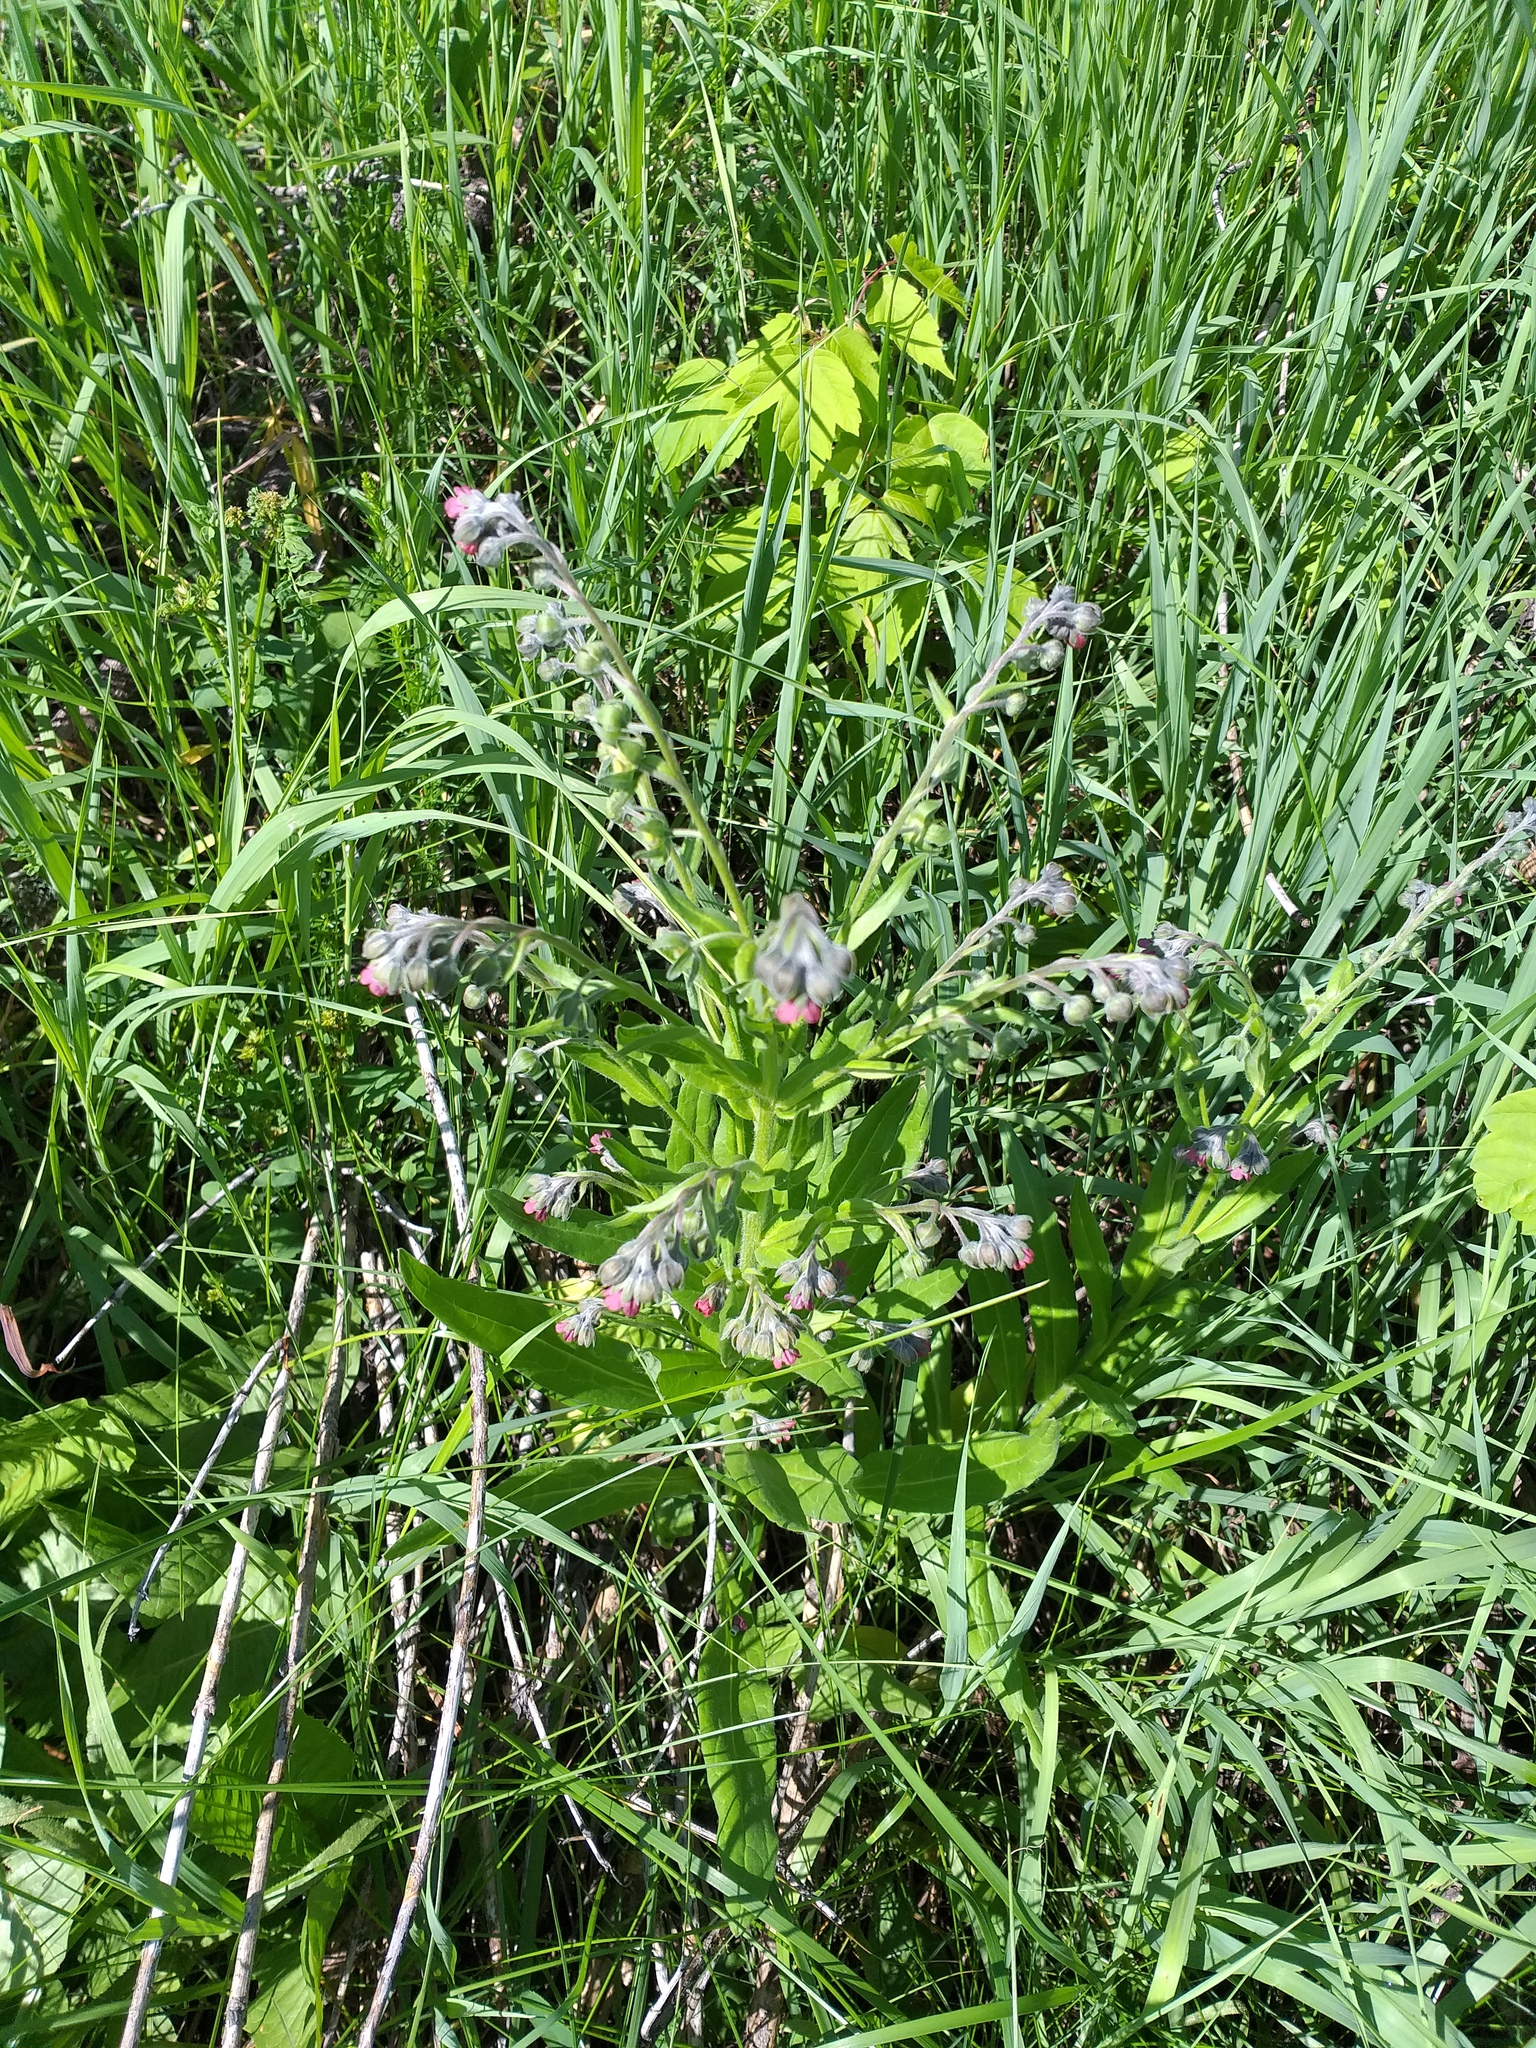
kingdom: Plantae
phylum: Tracheophyta
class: Magnoliopsida
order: Boraginales
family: Boraginaceae
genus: Cynoglossum
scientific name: Cynoglossum officinale
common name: Hound's-tongue
